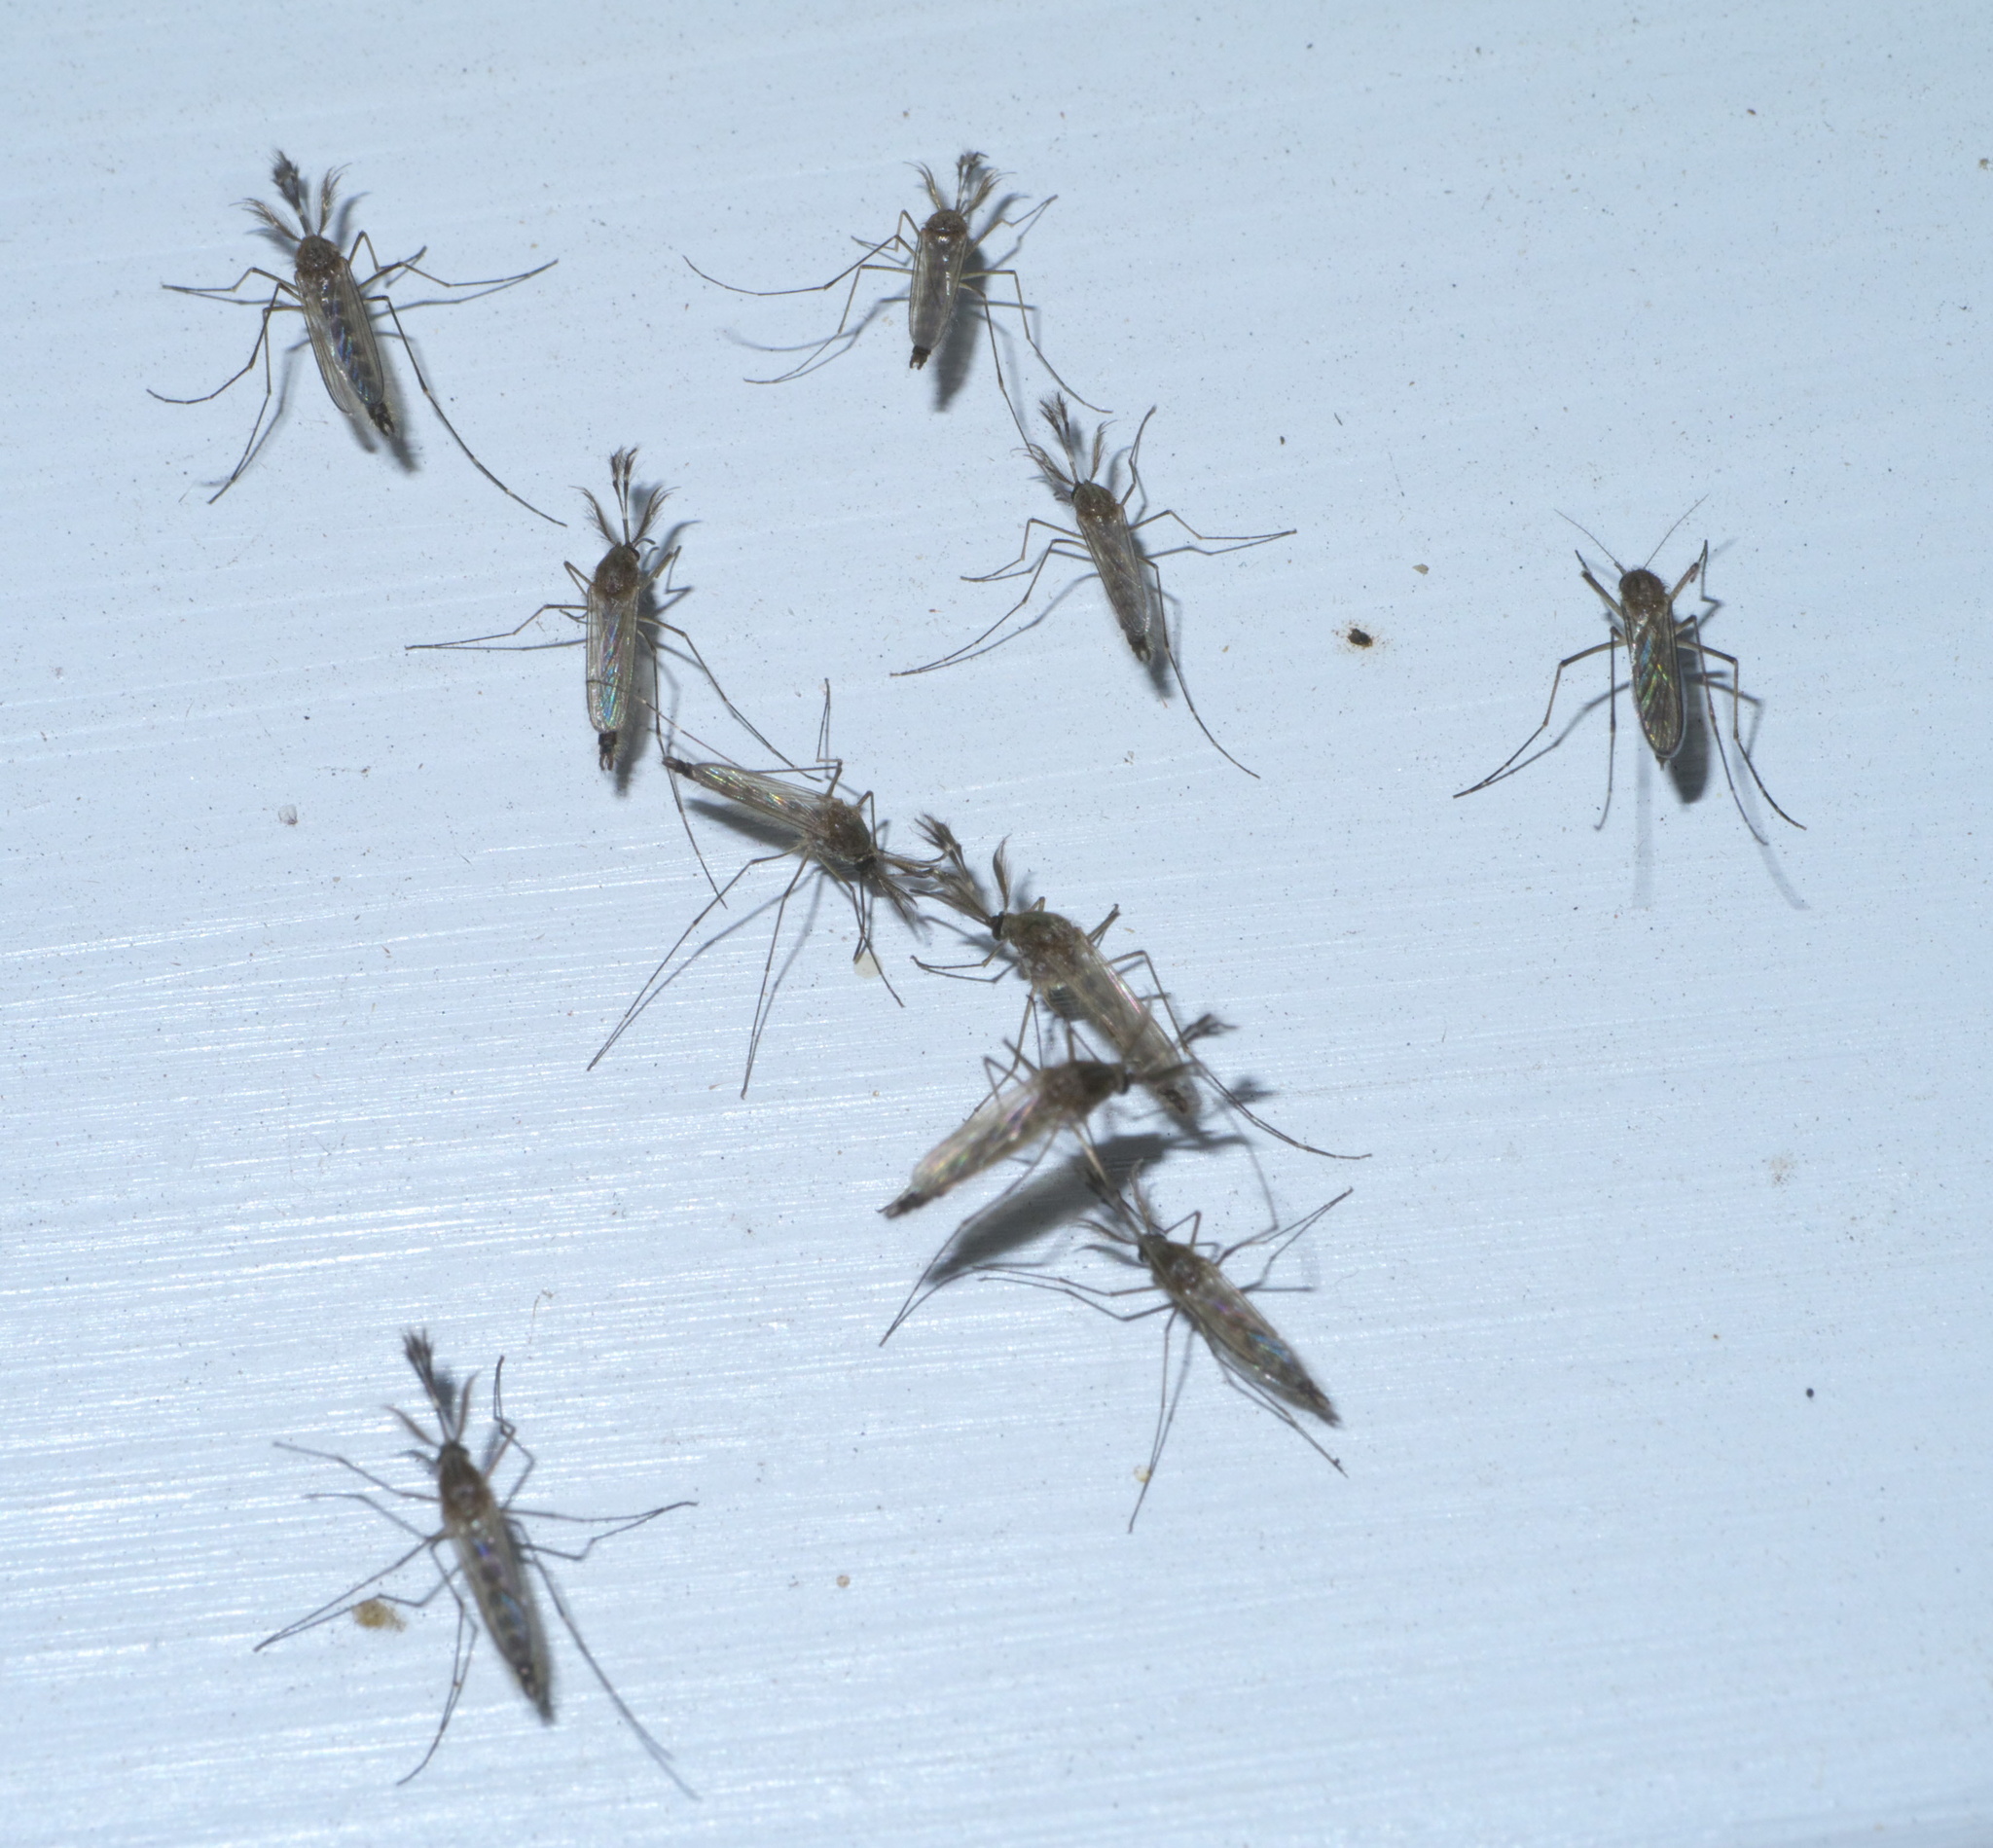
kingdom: Animalia
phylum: Arthropoda
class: Insecta
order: Diptera
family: Culicidae
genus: Aedes
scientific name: Aedes vexans
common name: Inland floodwater mosquito
